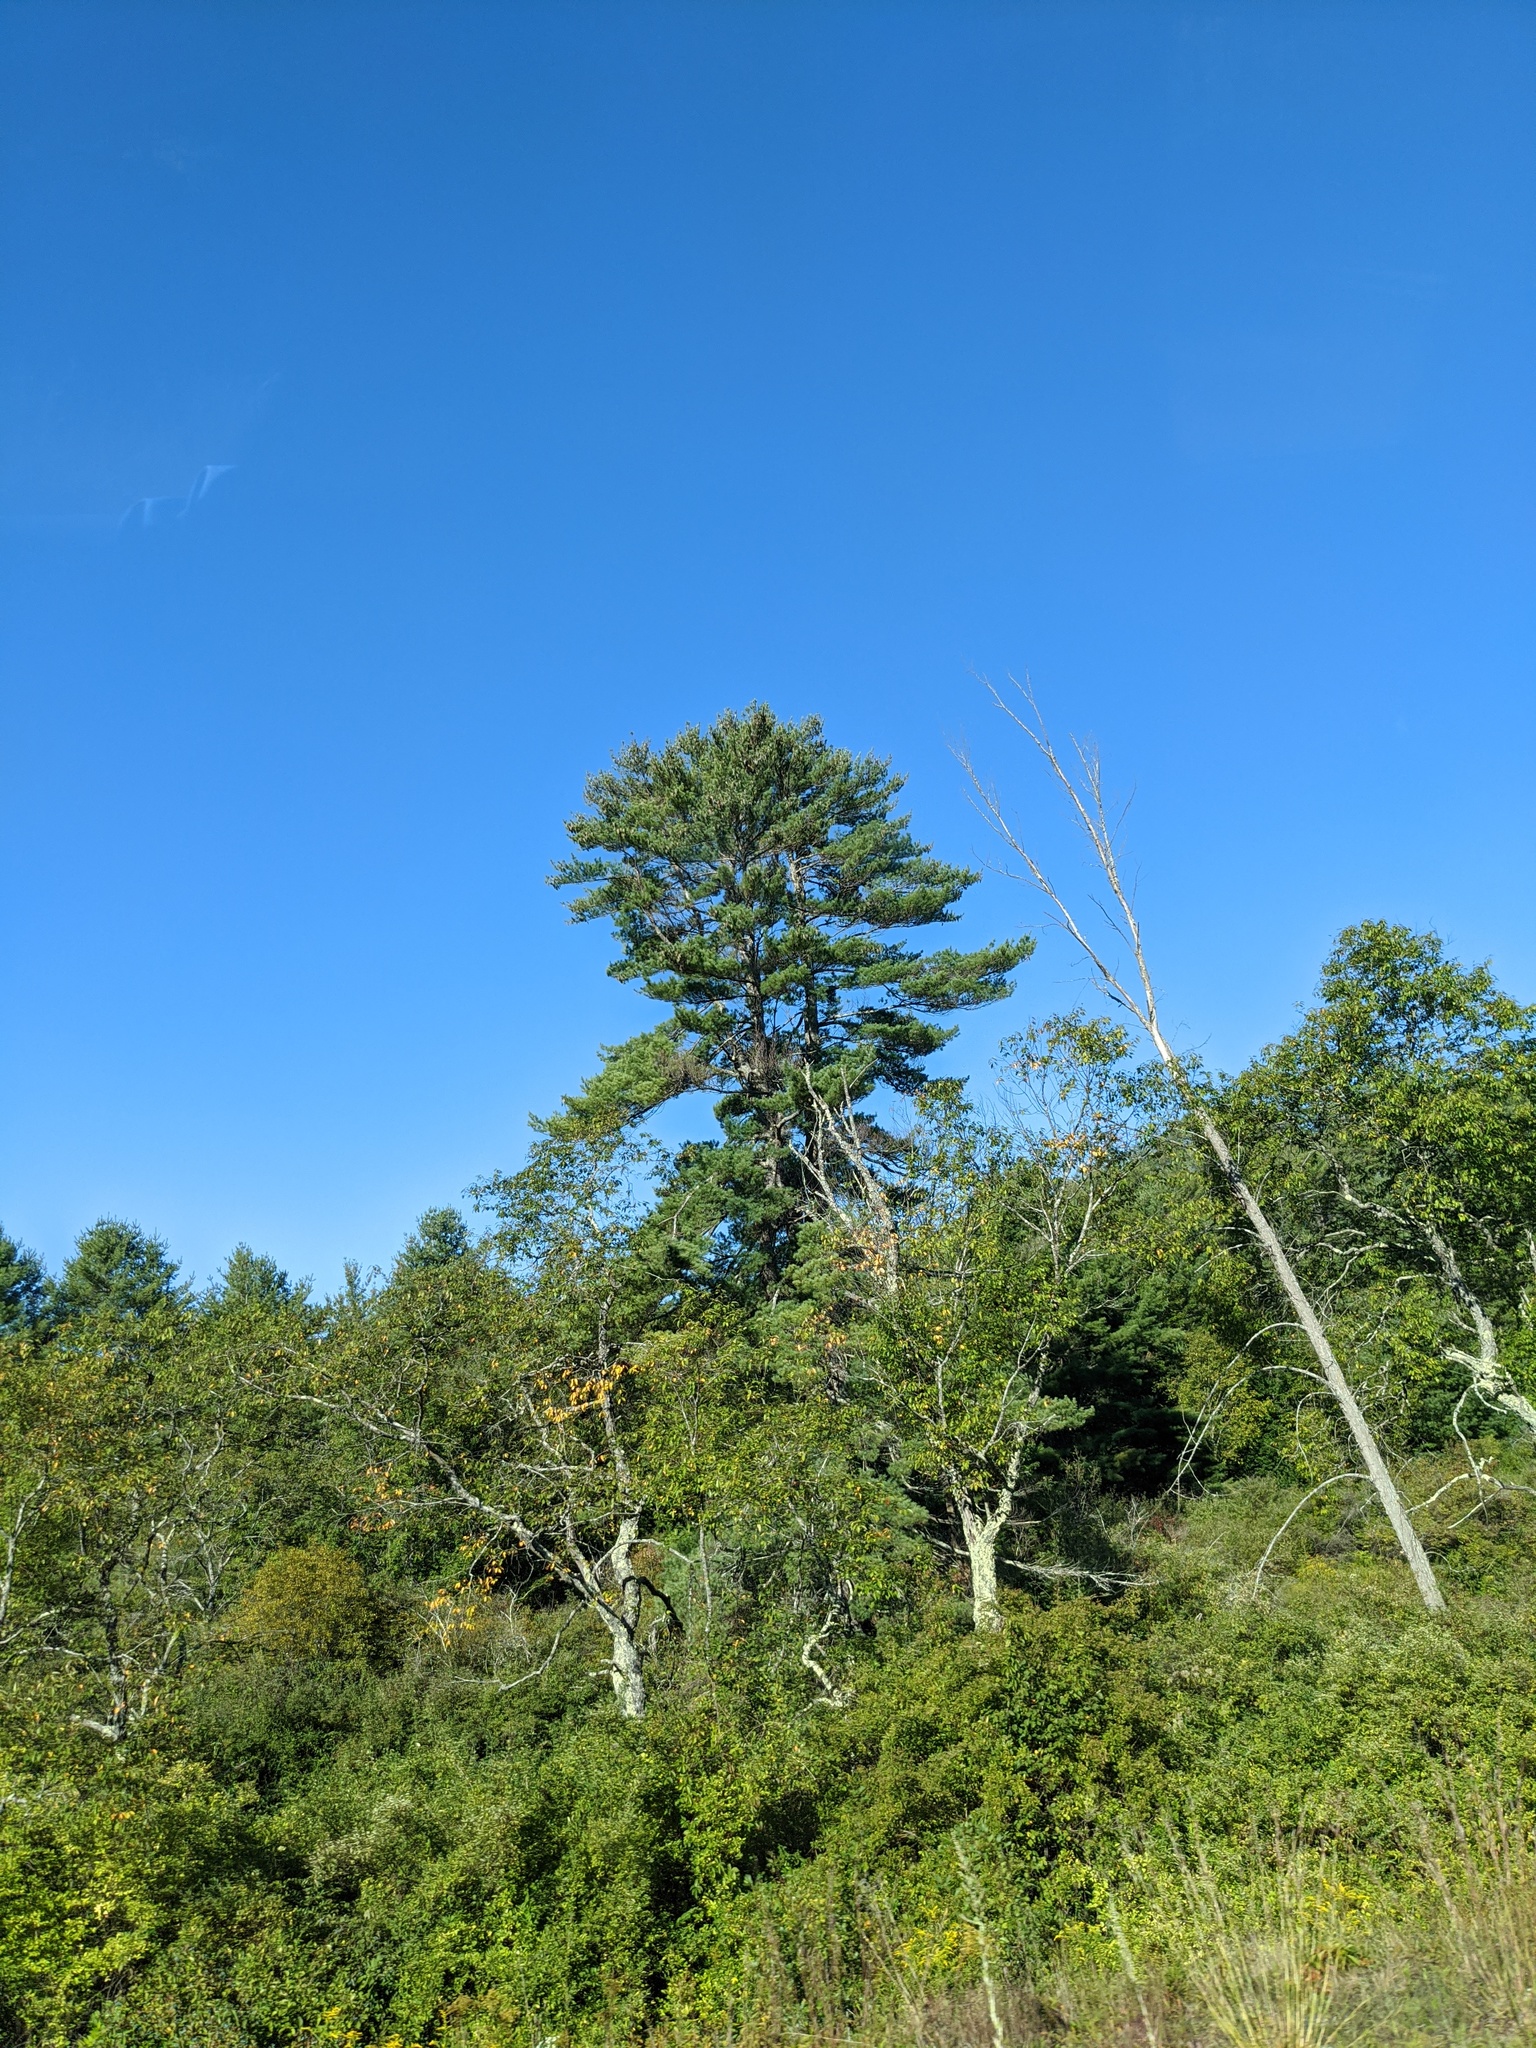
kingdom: Plantae
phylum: Tracheophyta
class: Pinopsida
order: Pinales
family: Pinaceae
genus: Pinus
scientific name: Pinus strobus
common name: Weymouth pine
